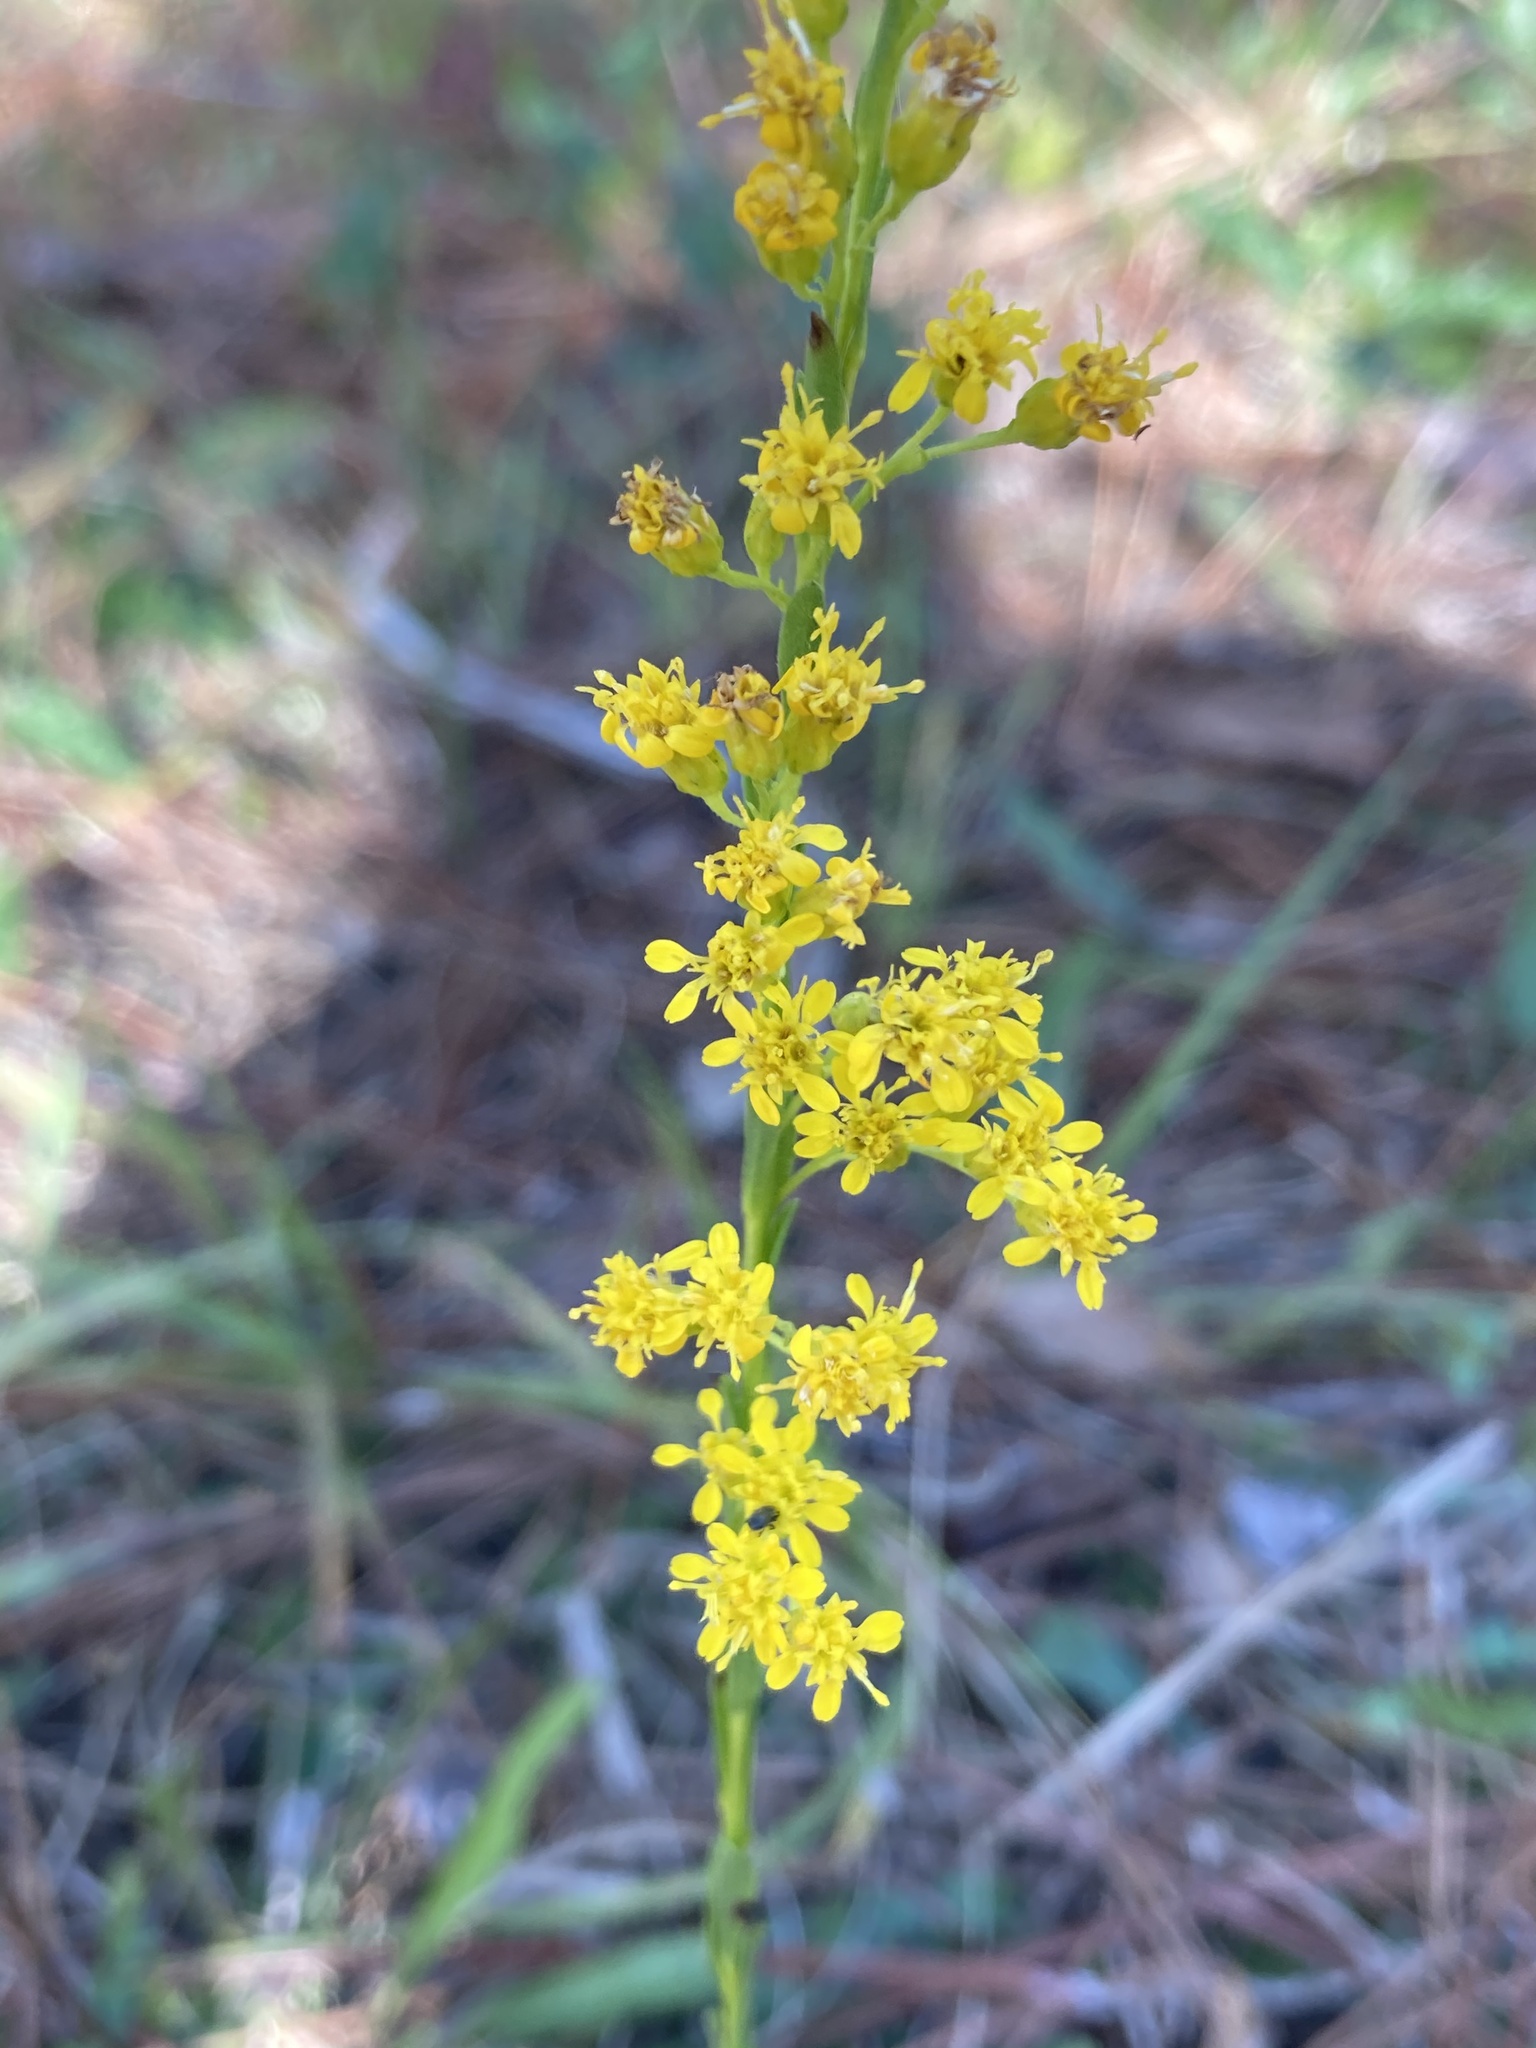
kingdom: Plantae
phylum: Tracheophyta
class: Magnoliopsida
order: Asterales
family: Asteraceae
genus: Solidago
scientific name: Solidago virgata
